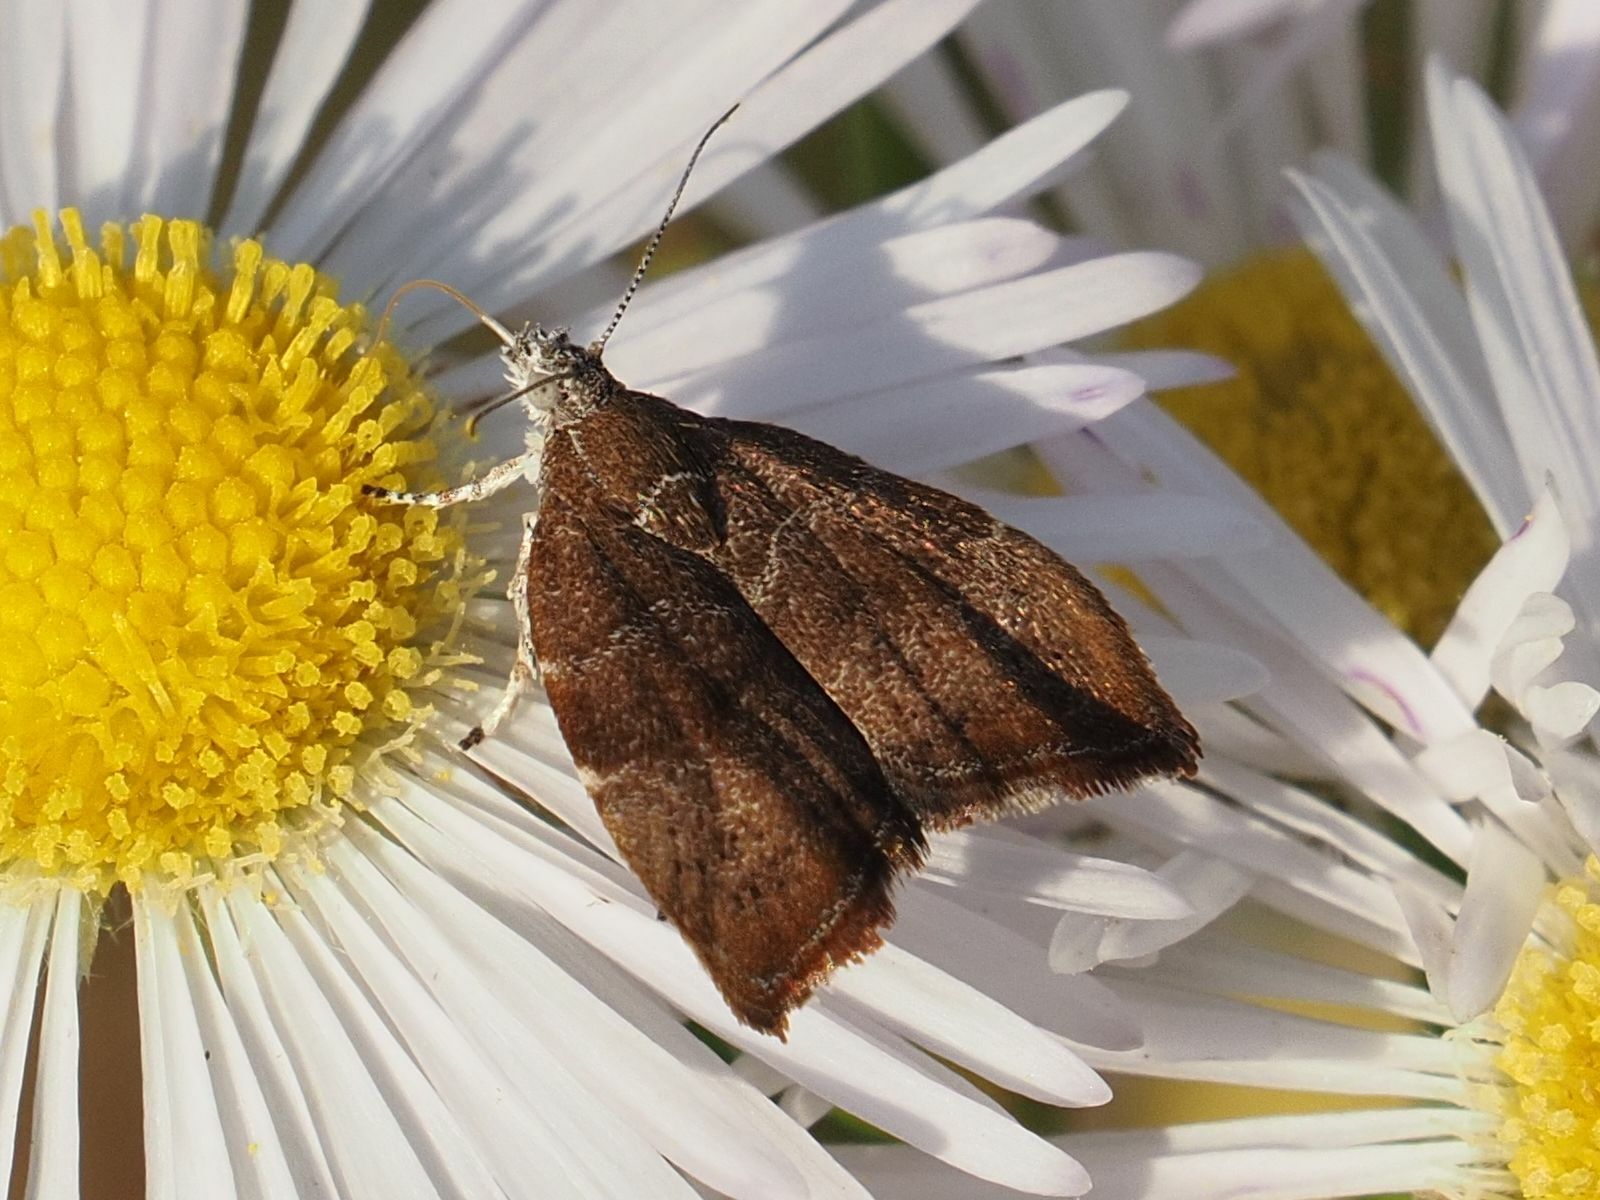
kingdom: Animalia
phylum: Arthropoda
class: Insecta
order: Lepidoptera
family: Choreutidae
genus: Anthophila
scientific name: Anthophila nemorana
